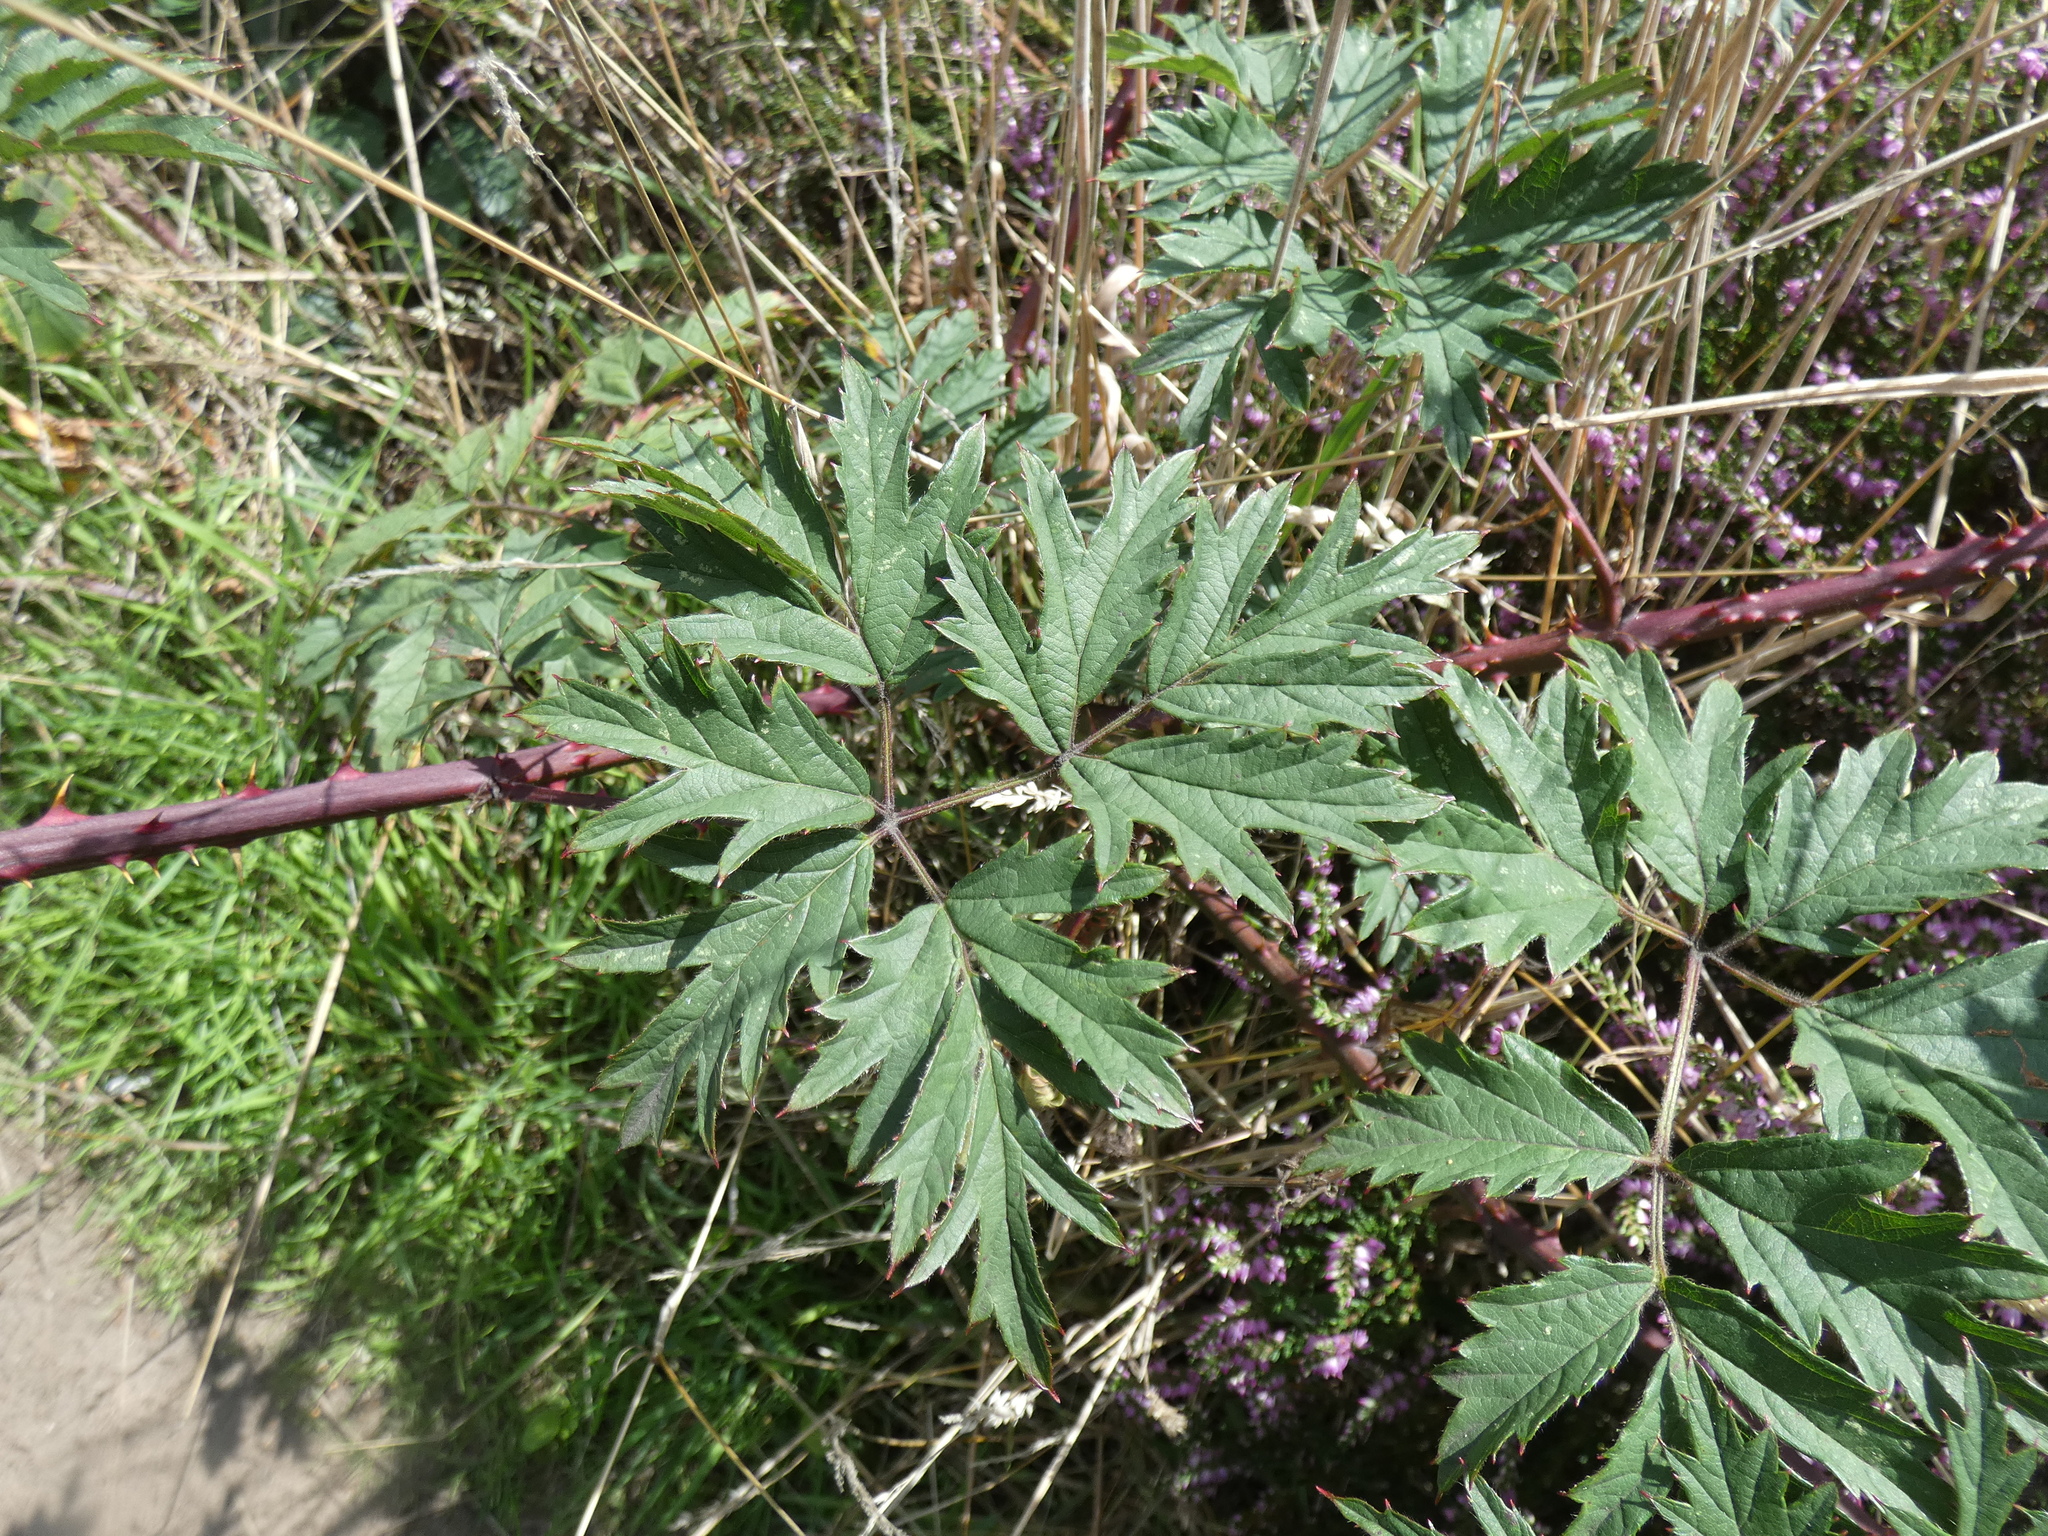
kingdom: Plantae
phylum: Tracheophyta
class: Magnoliopsida
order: Rosales
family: Rosaceae
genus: Rubus
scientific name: Rubus laciniatus
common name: Evergreen blackberry
